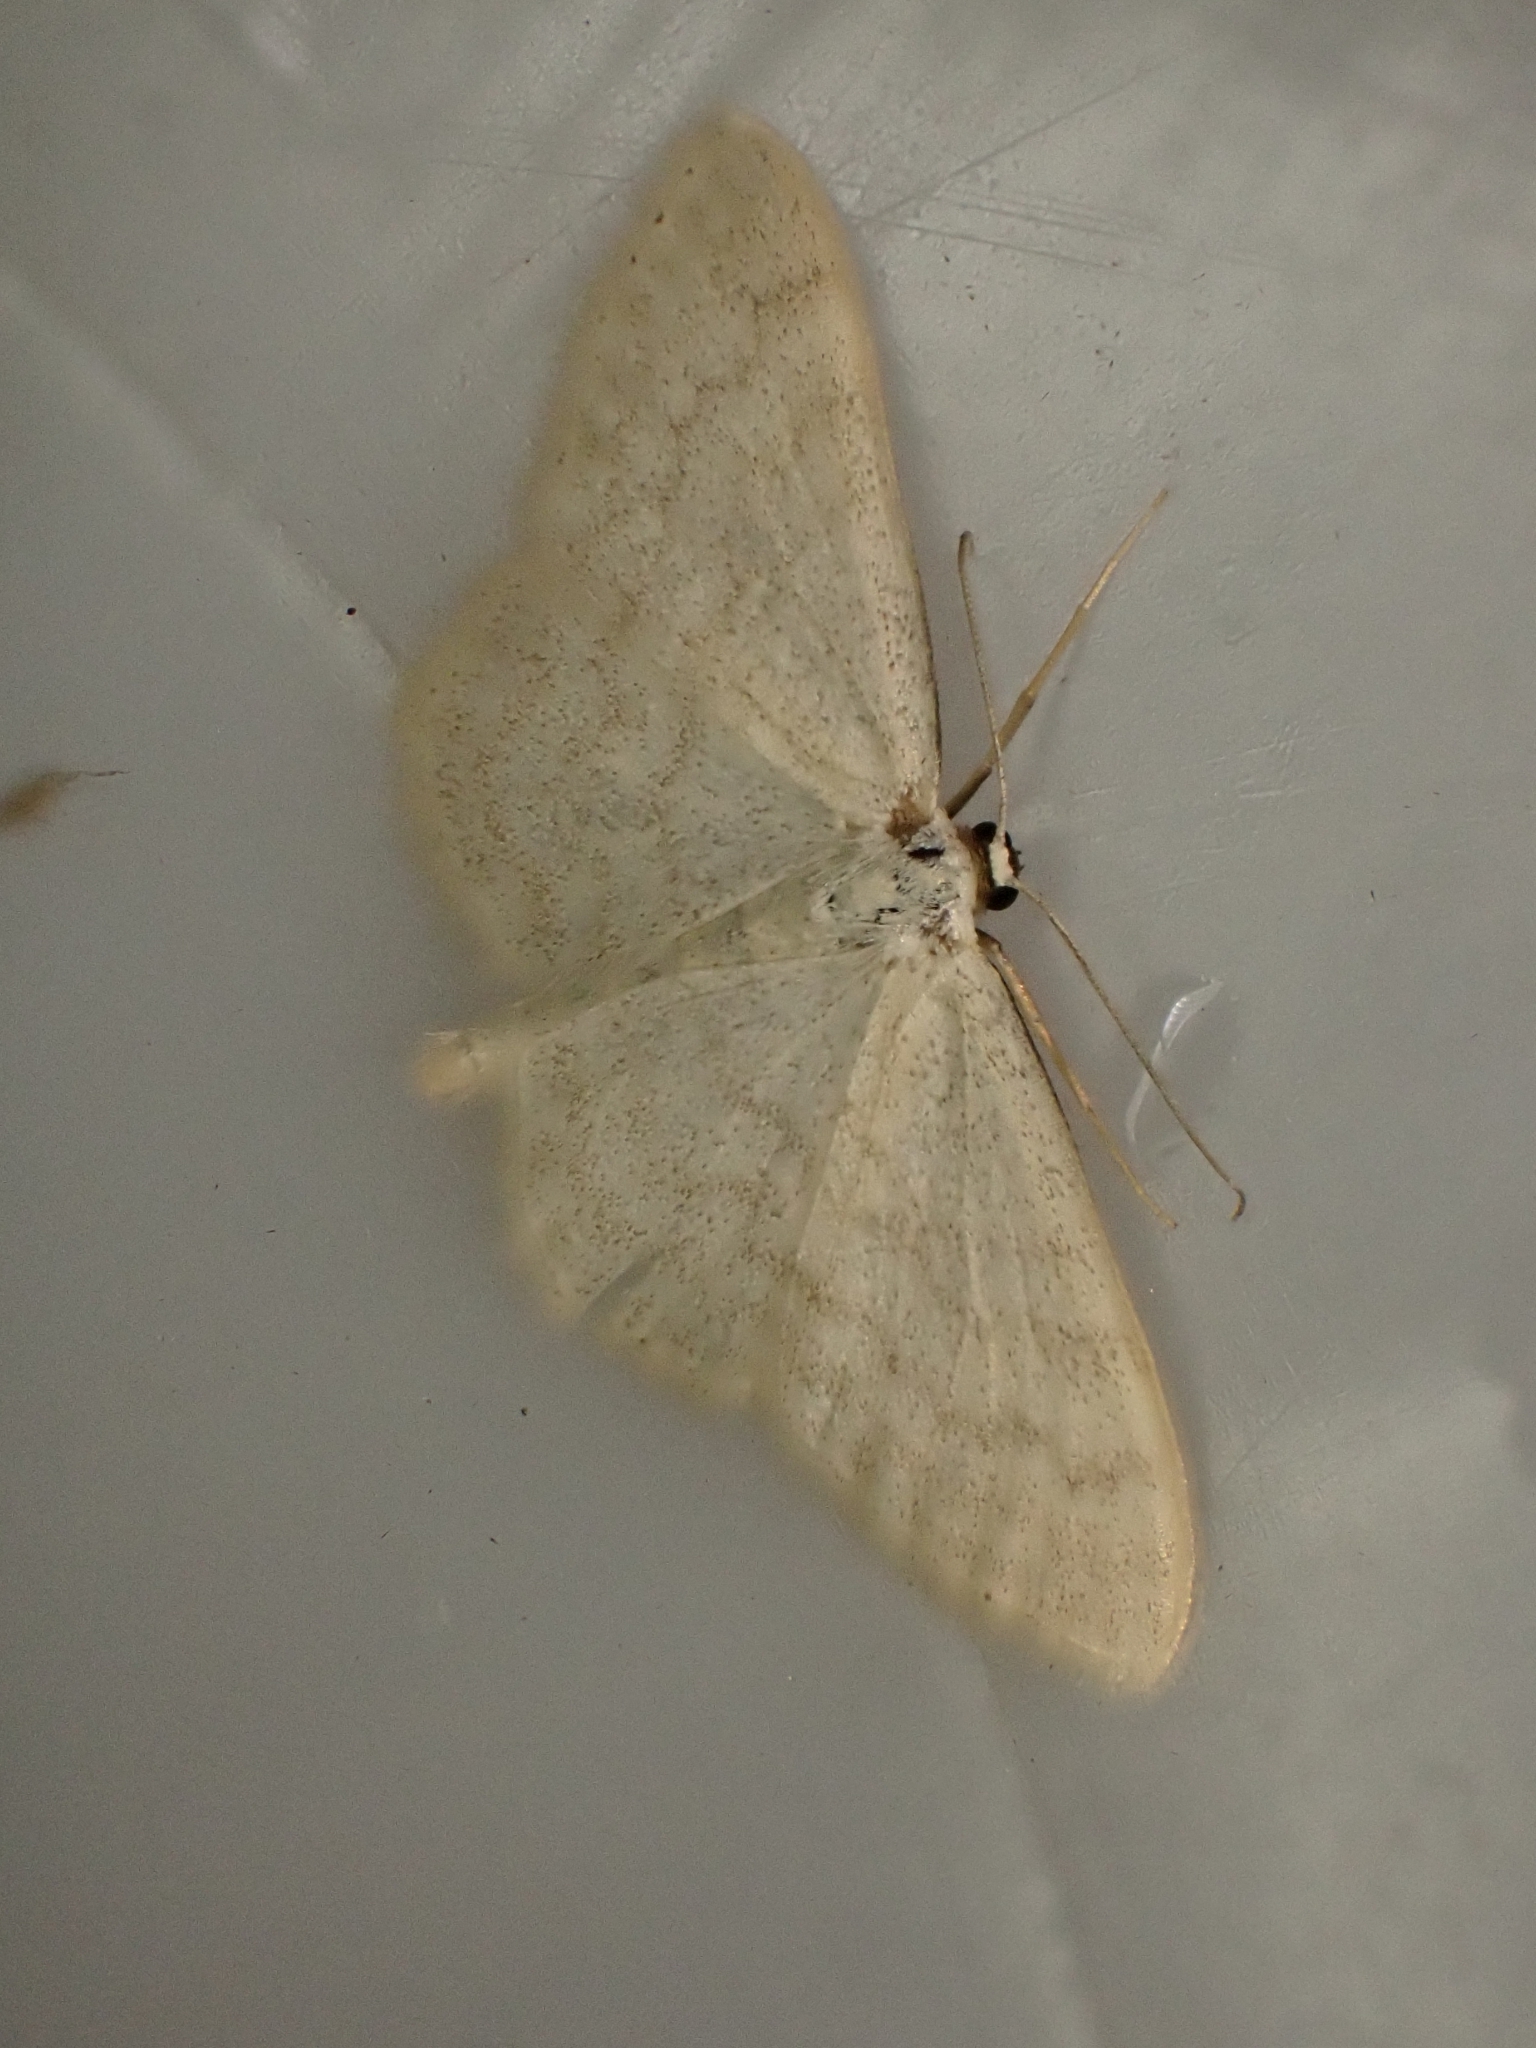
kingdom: Animalia
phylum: Arthropoda
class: Insecta
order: Lepidoptera
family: Geometridae
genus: Scopula
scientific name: Scopula floslactata
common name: Cream wave
